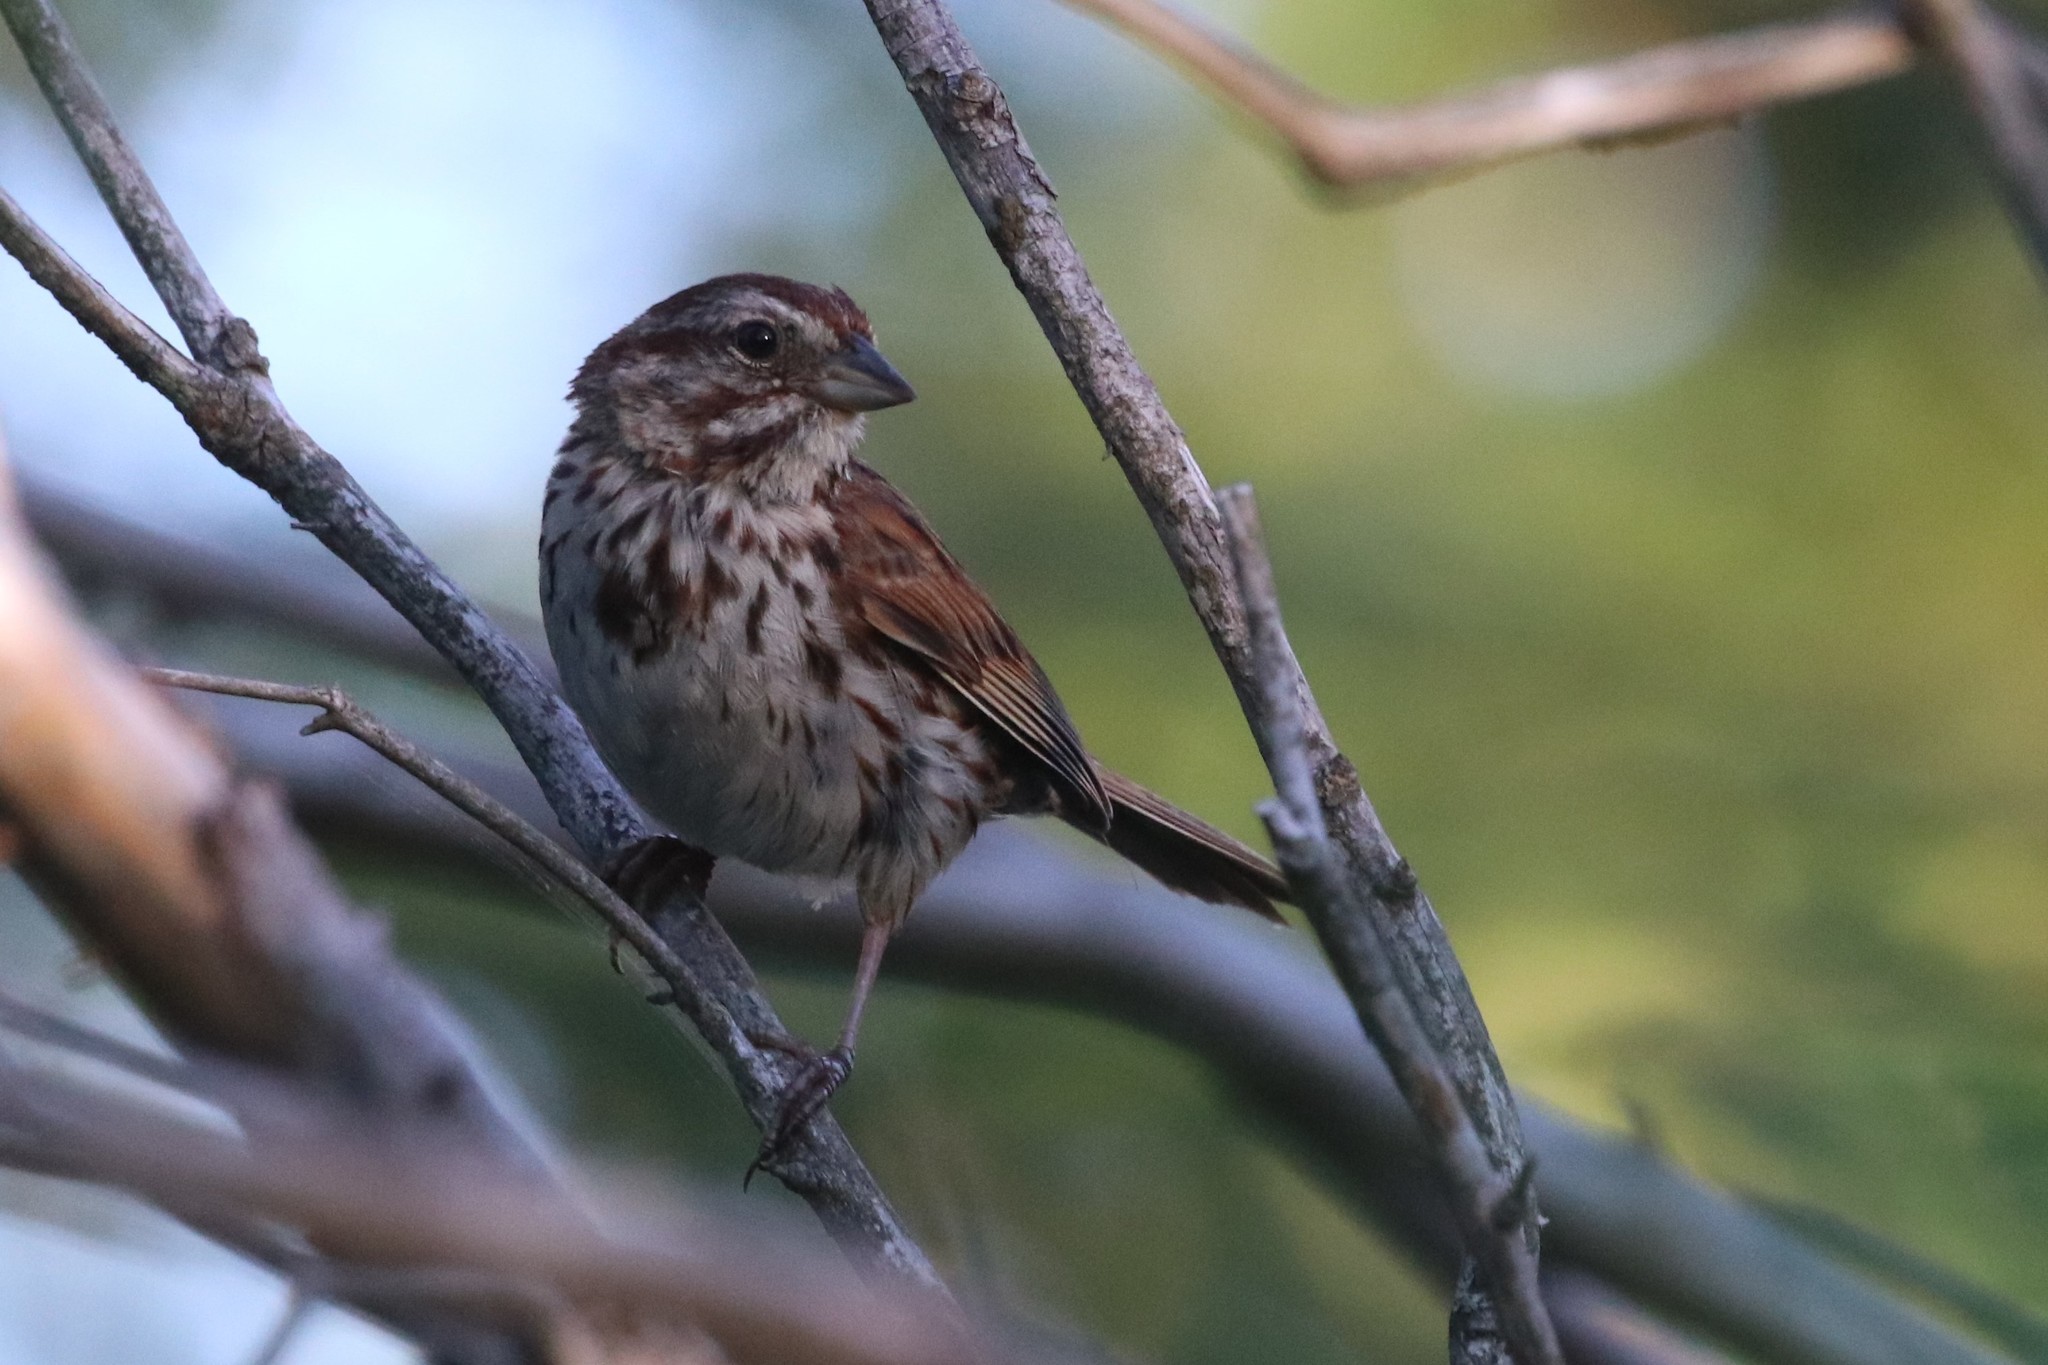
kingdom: Animalia
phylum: Chordata
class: Aves
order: Passeriformes
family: Passerellidae
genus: Melospiza
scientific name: Melospiza melodia
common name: Song sparrow
